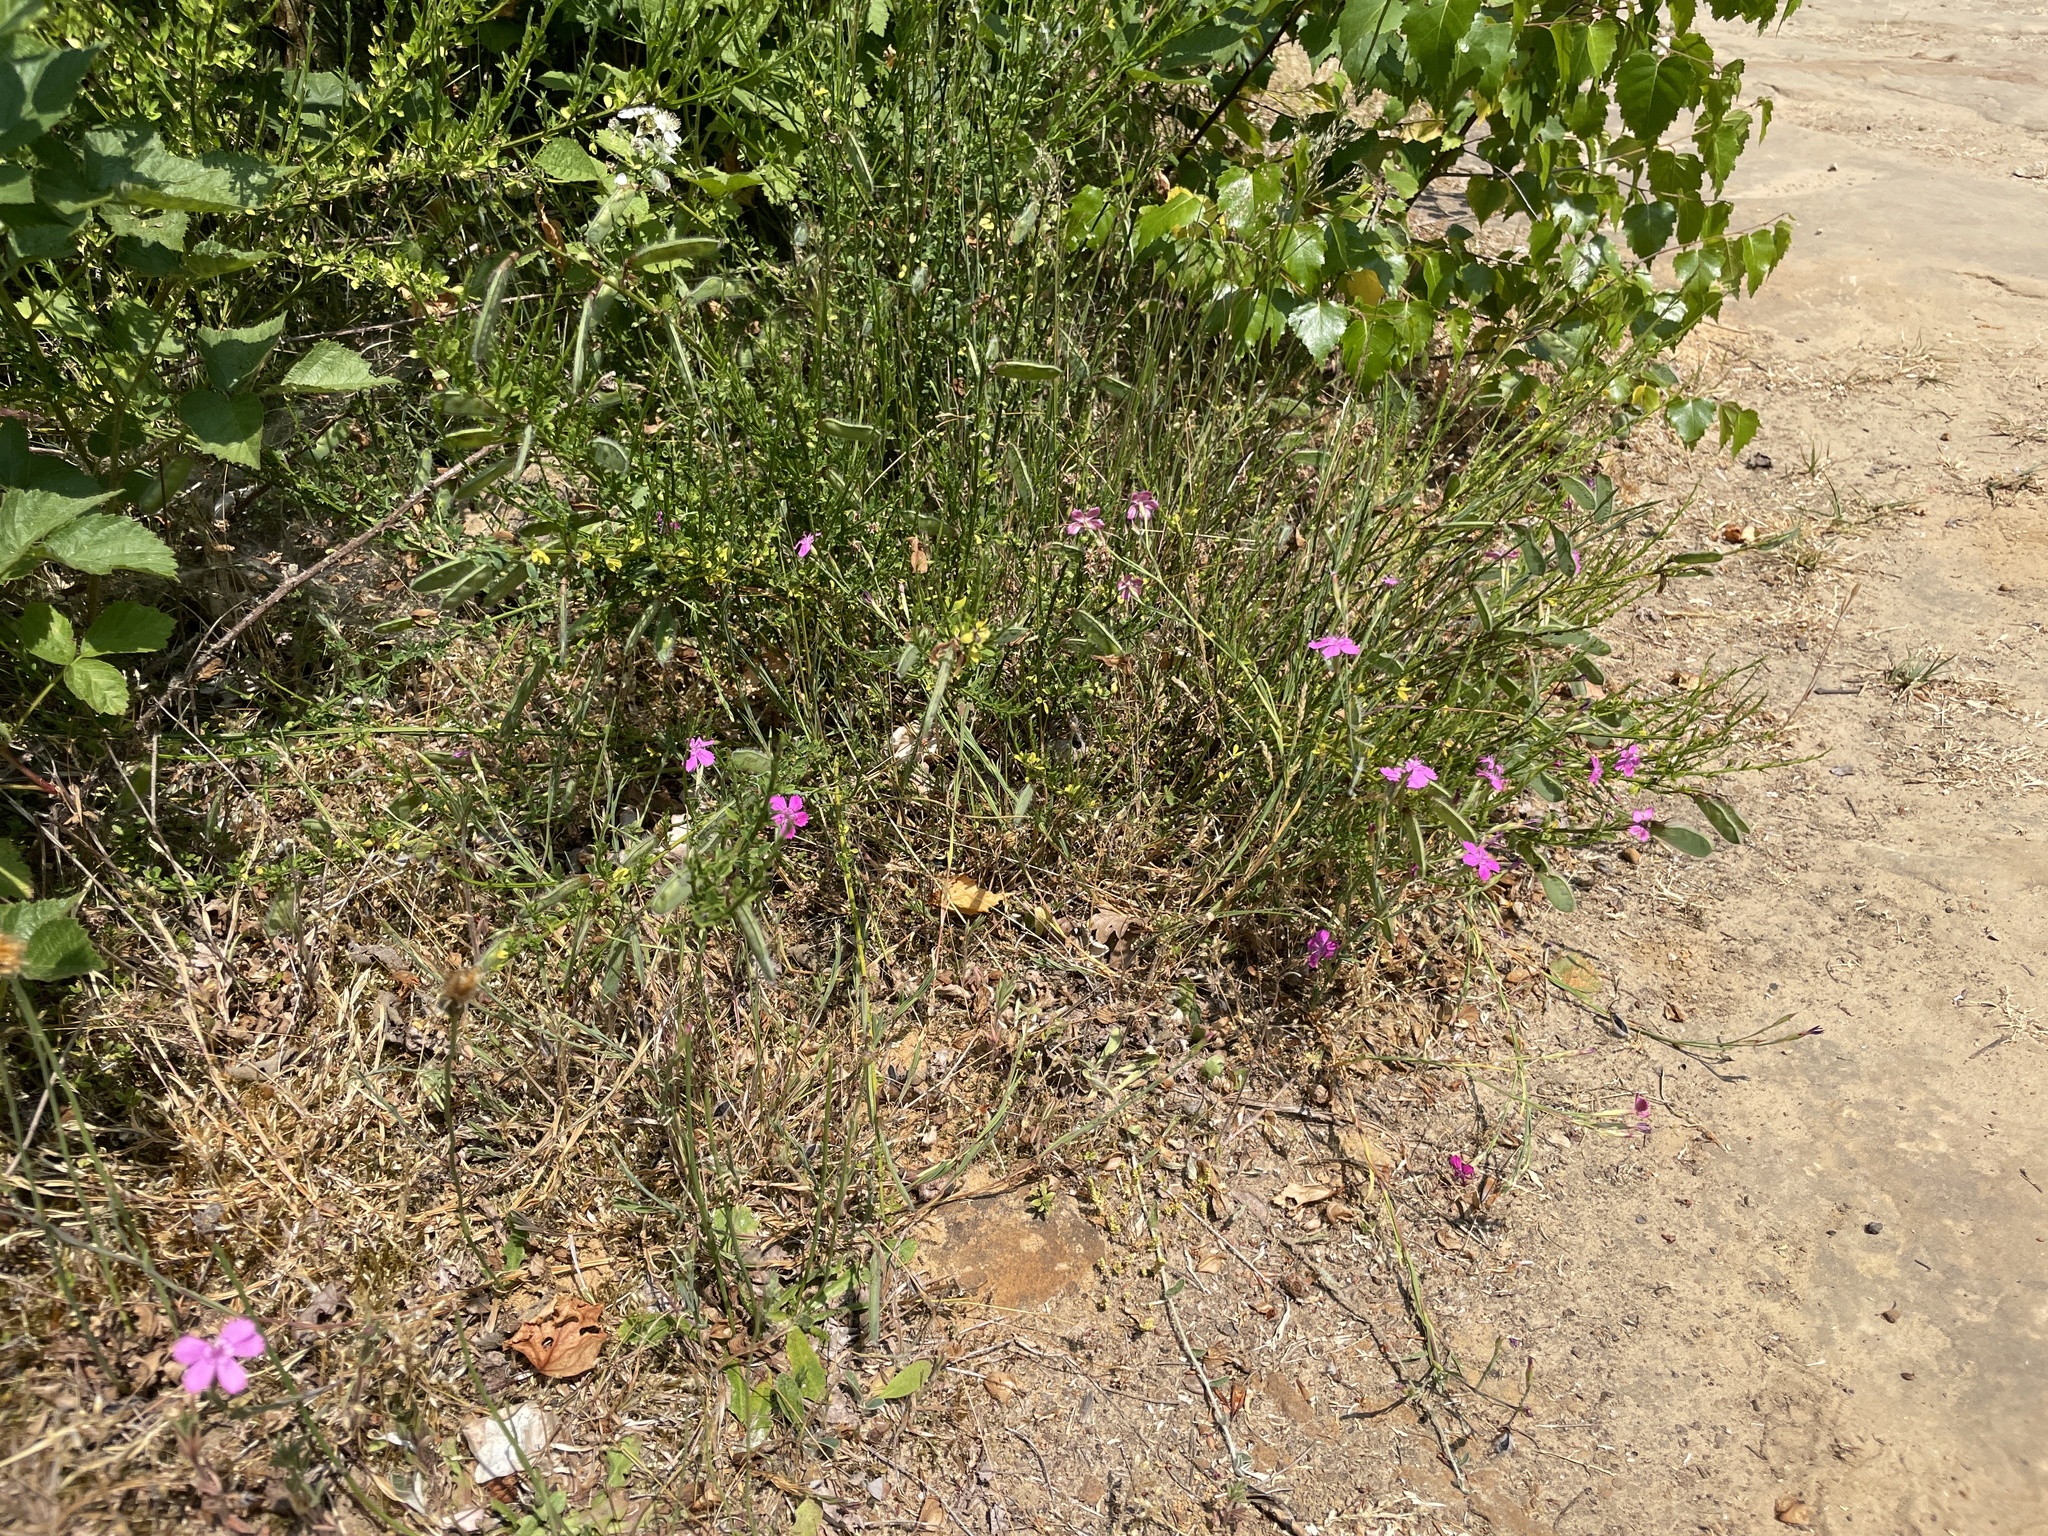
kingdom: Plantae
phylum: Tracheophyta
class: Magnoliopsida
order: Caryophyllales
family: Caryophyllaceae
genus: Dianthus
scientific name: Dianthus deltoides
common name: Maiden pink
